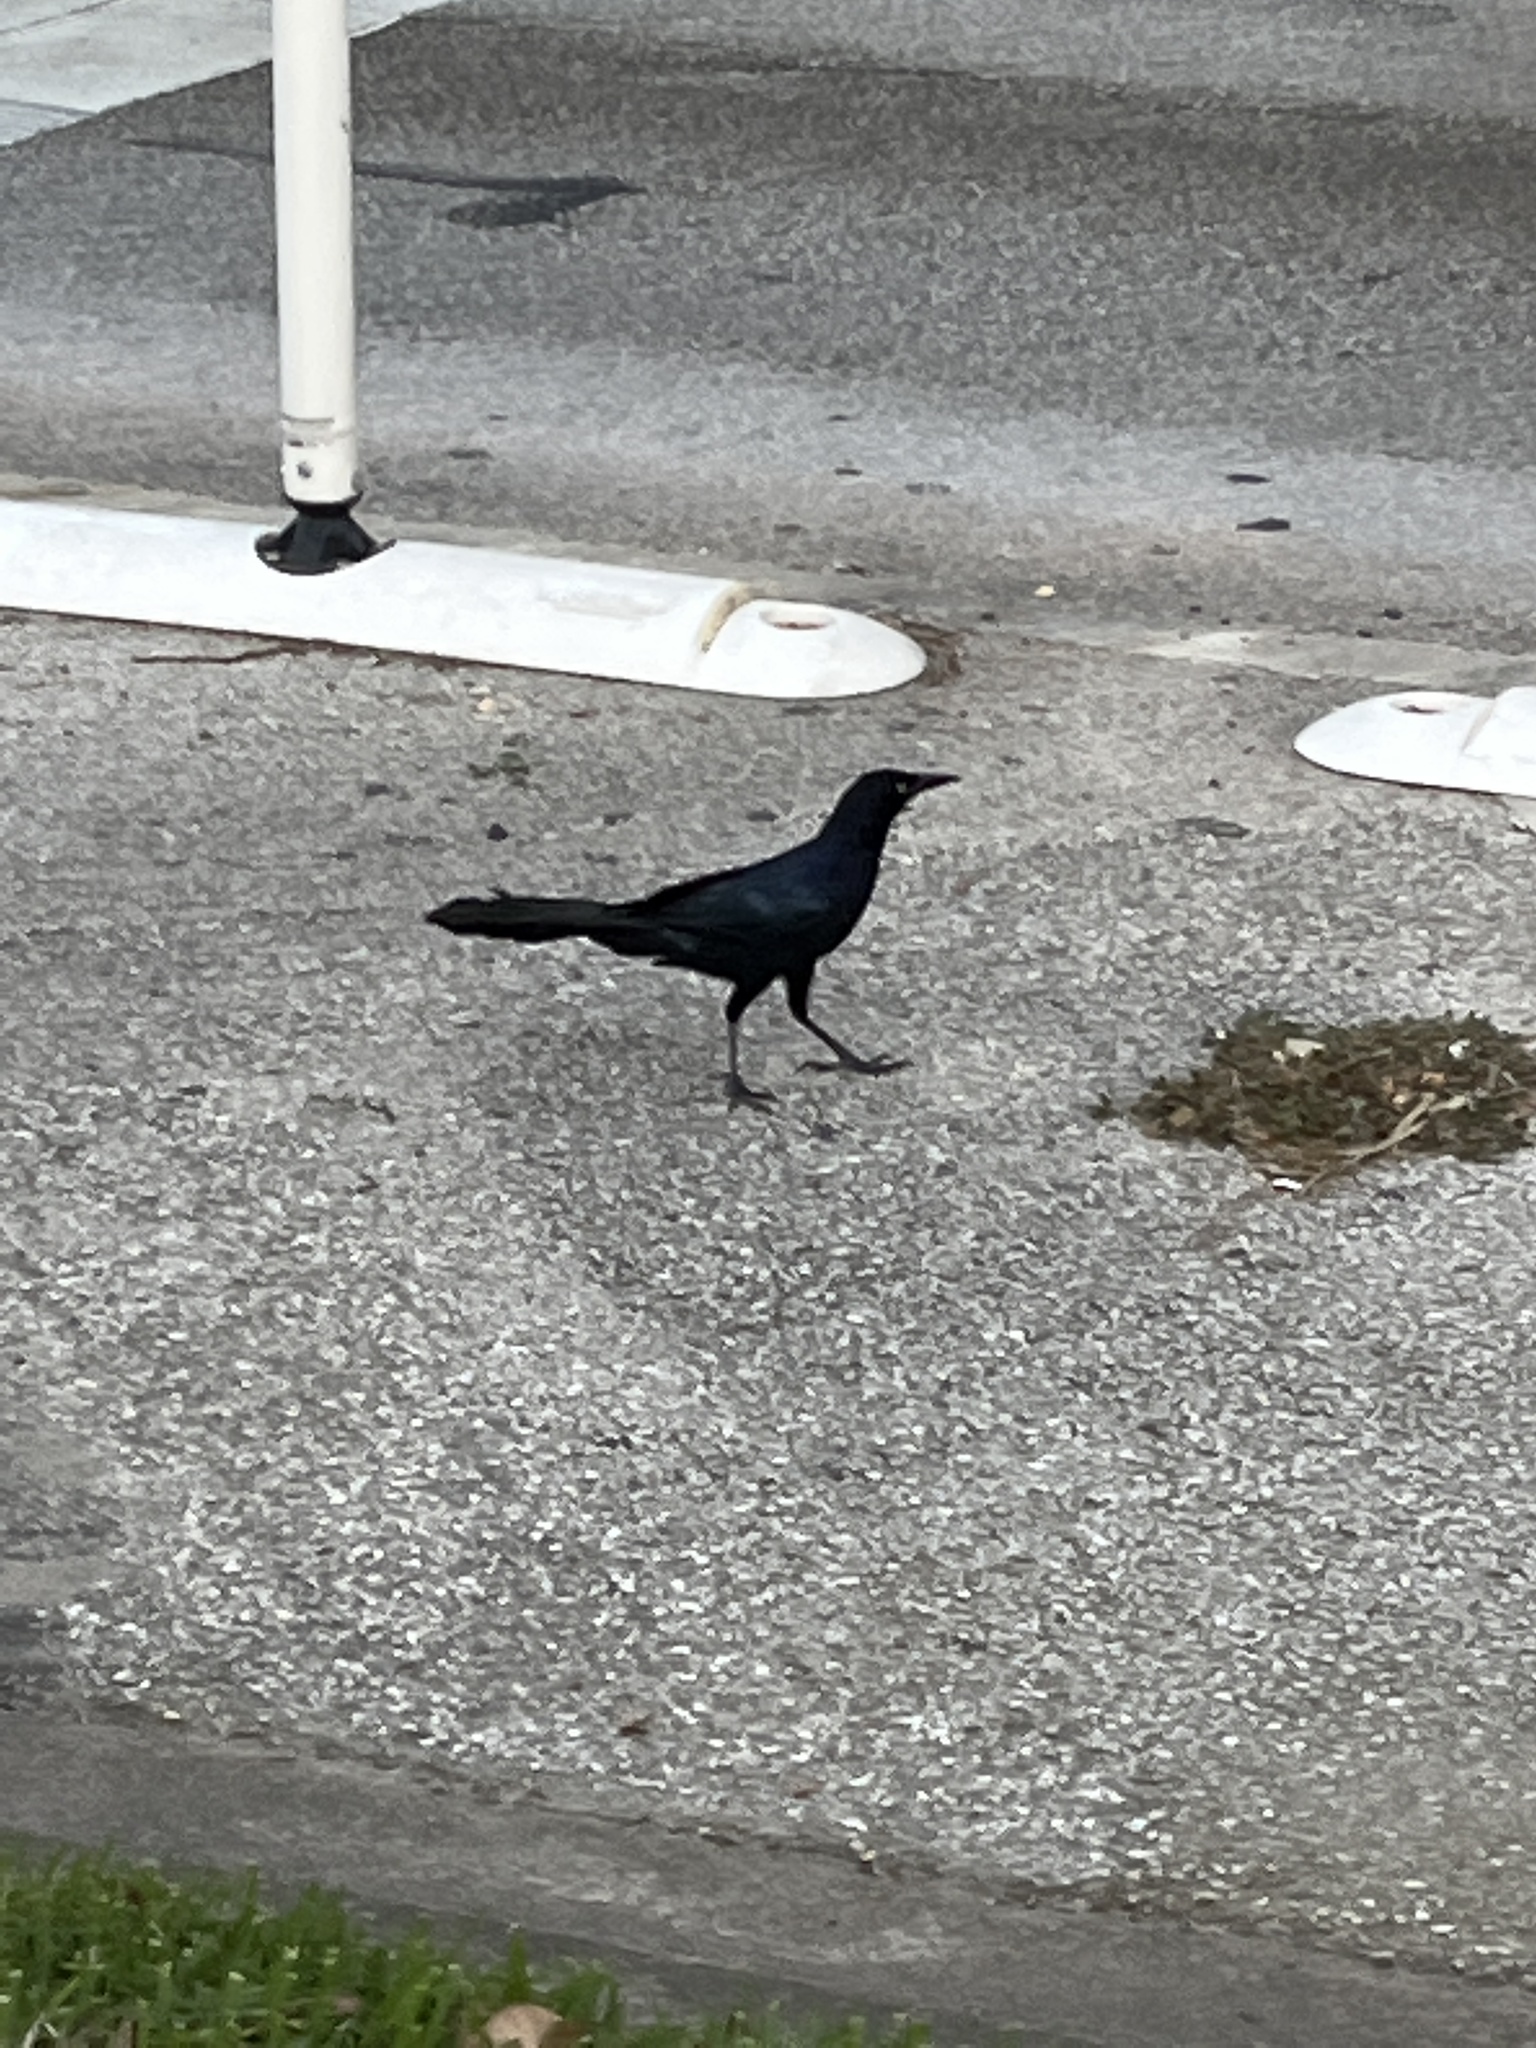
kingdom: Animalia
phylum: Chordata
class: Aves
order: Passeriformes
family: Icteridae
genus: Quiscalus
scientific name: Quiscalus mexicanus
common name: Great-tailed grackle
